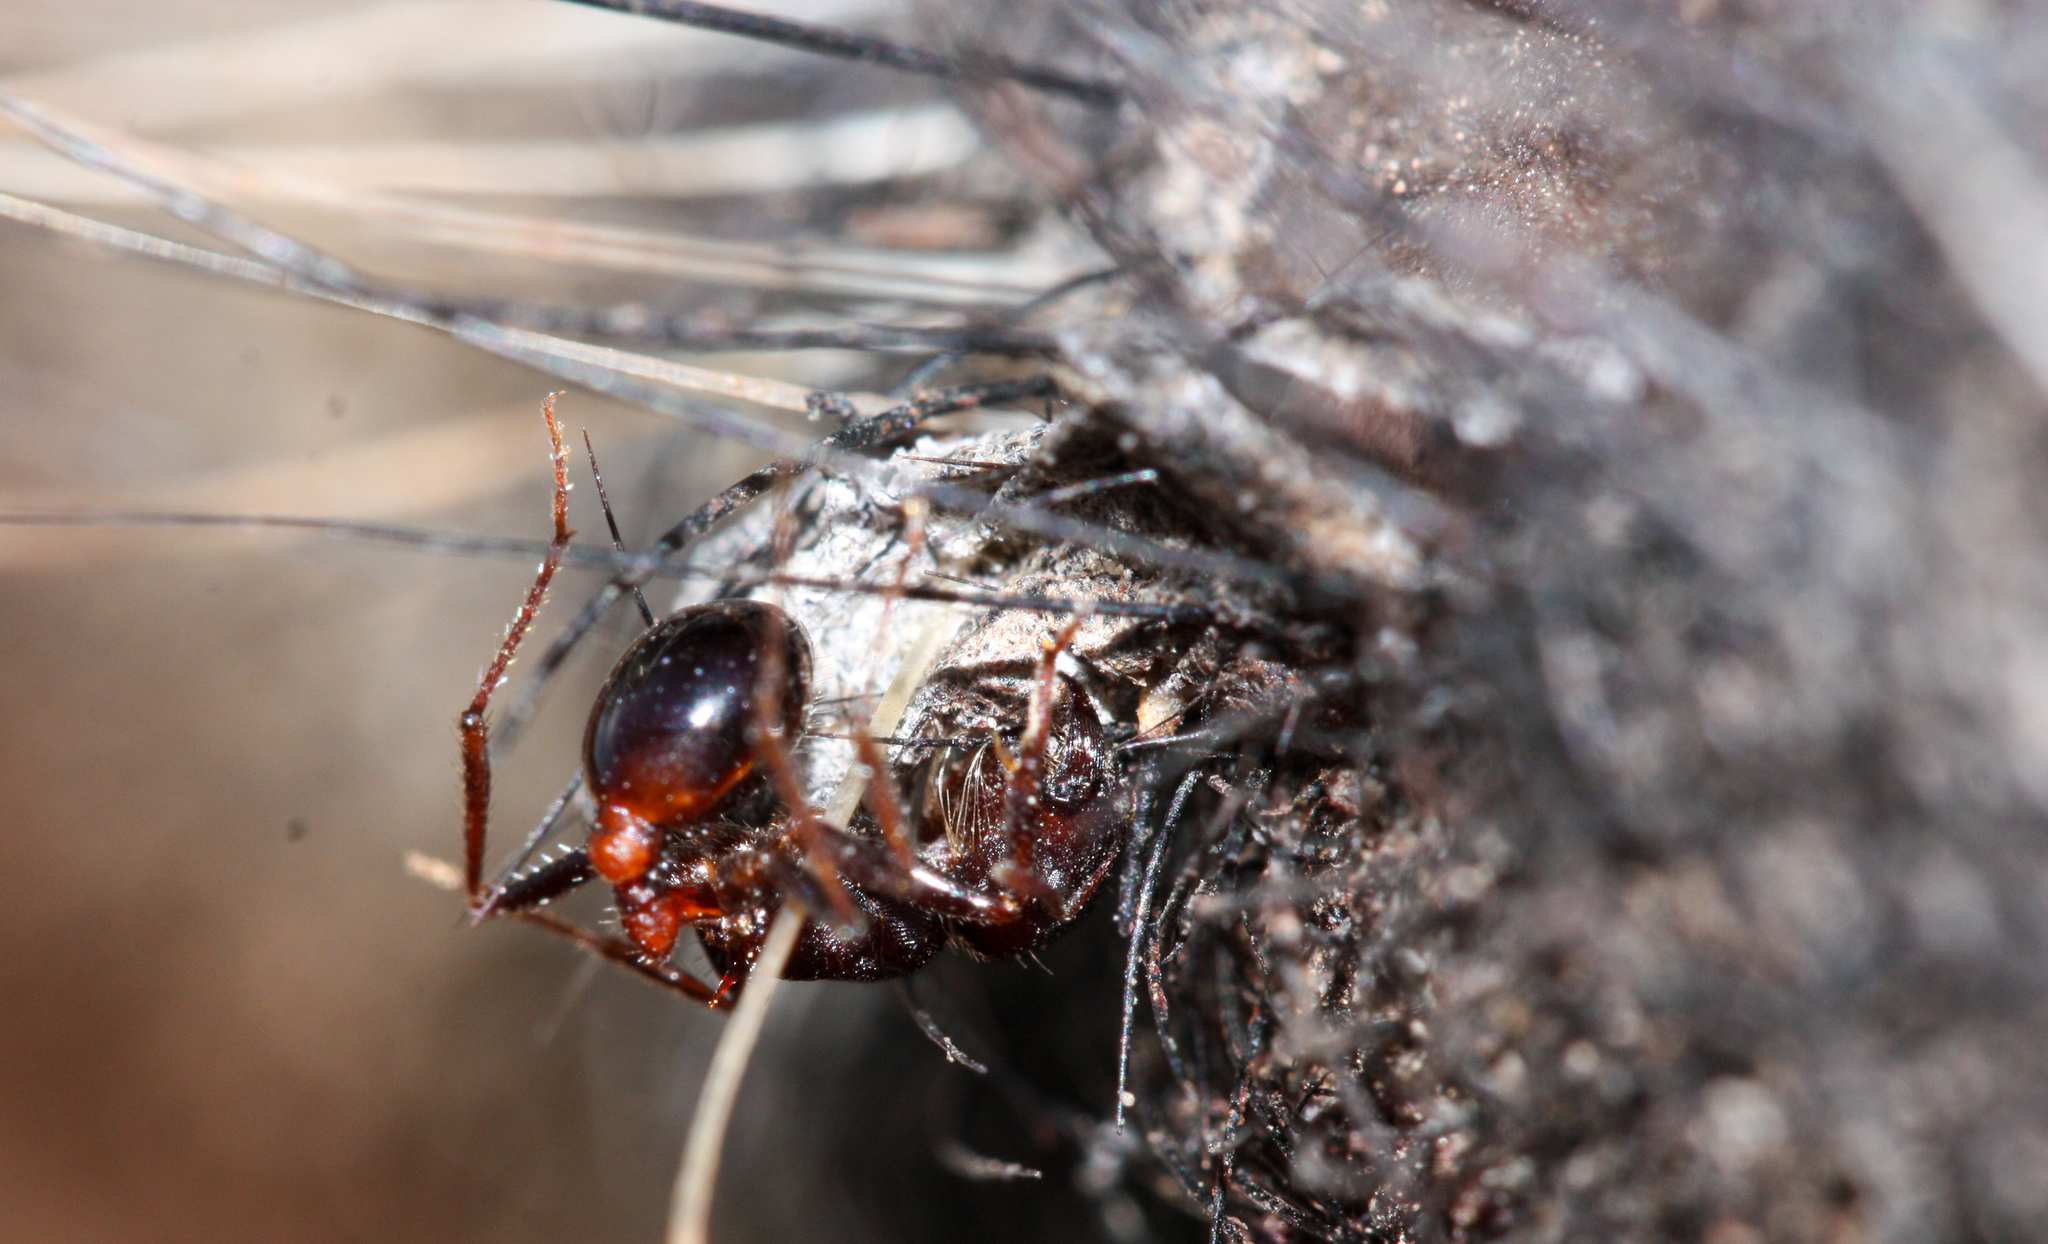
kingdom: Animalia
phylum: Arthropoda
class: Insecta
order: Hymenoptera
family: Formicidae
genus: Pogonomyrmex
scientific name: Pogonomyrmex rugosus
